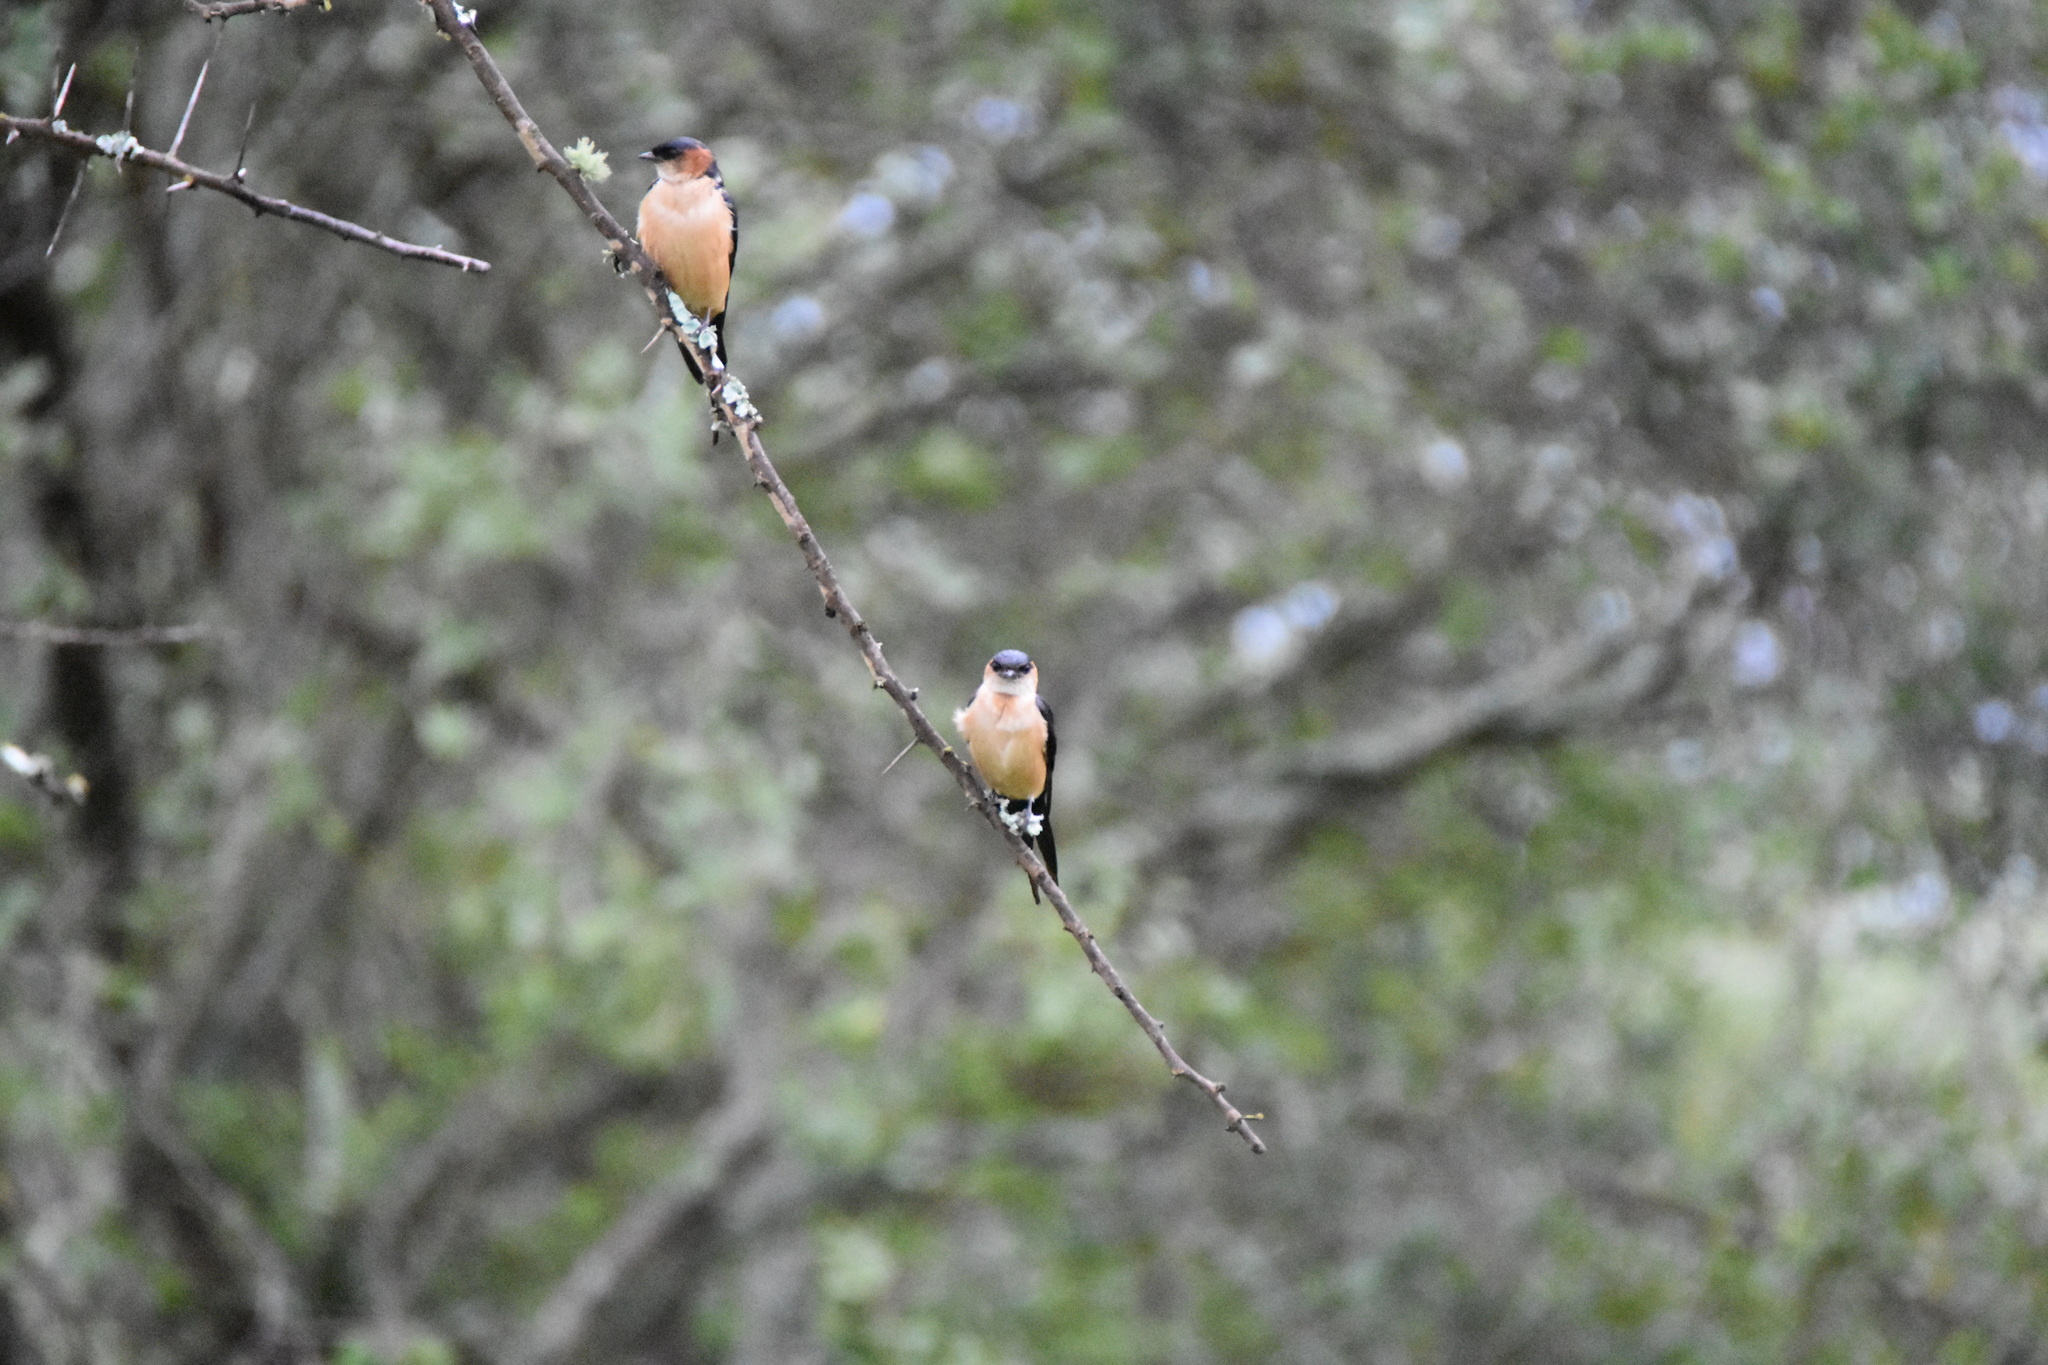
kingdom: Animalia
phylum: Chordata
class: Aves
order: Passeriformes
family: Hirundinidae
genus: Cecropis
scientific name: Cecropis daurica
